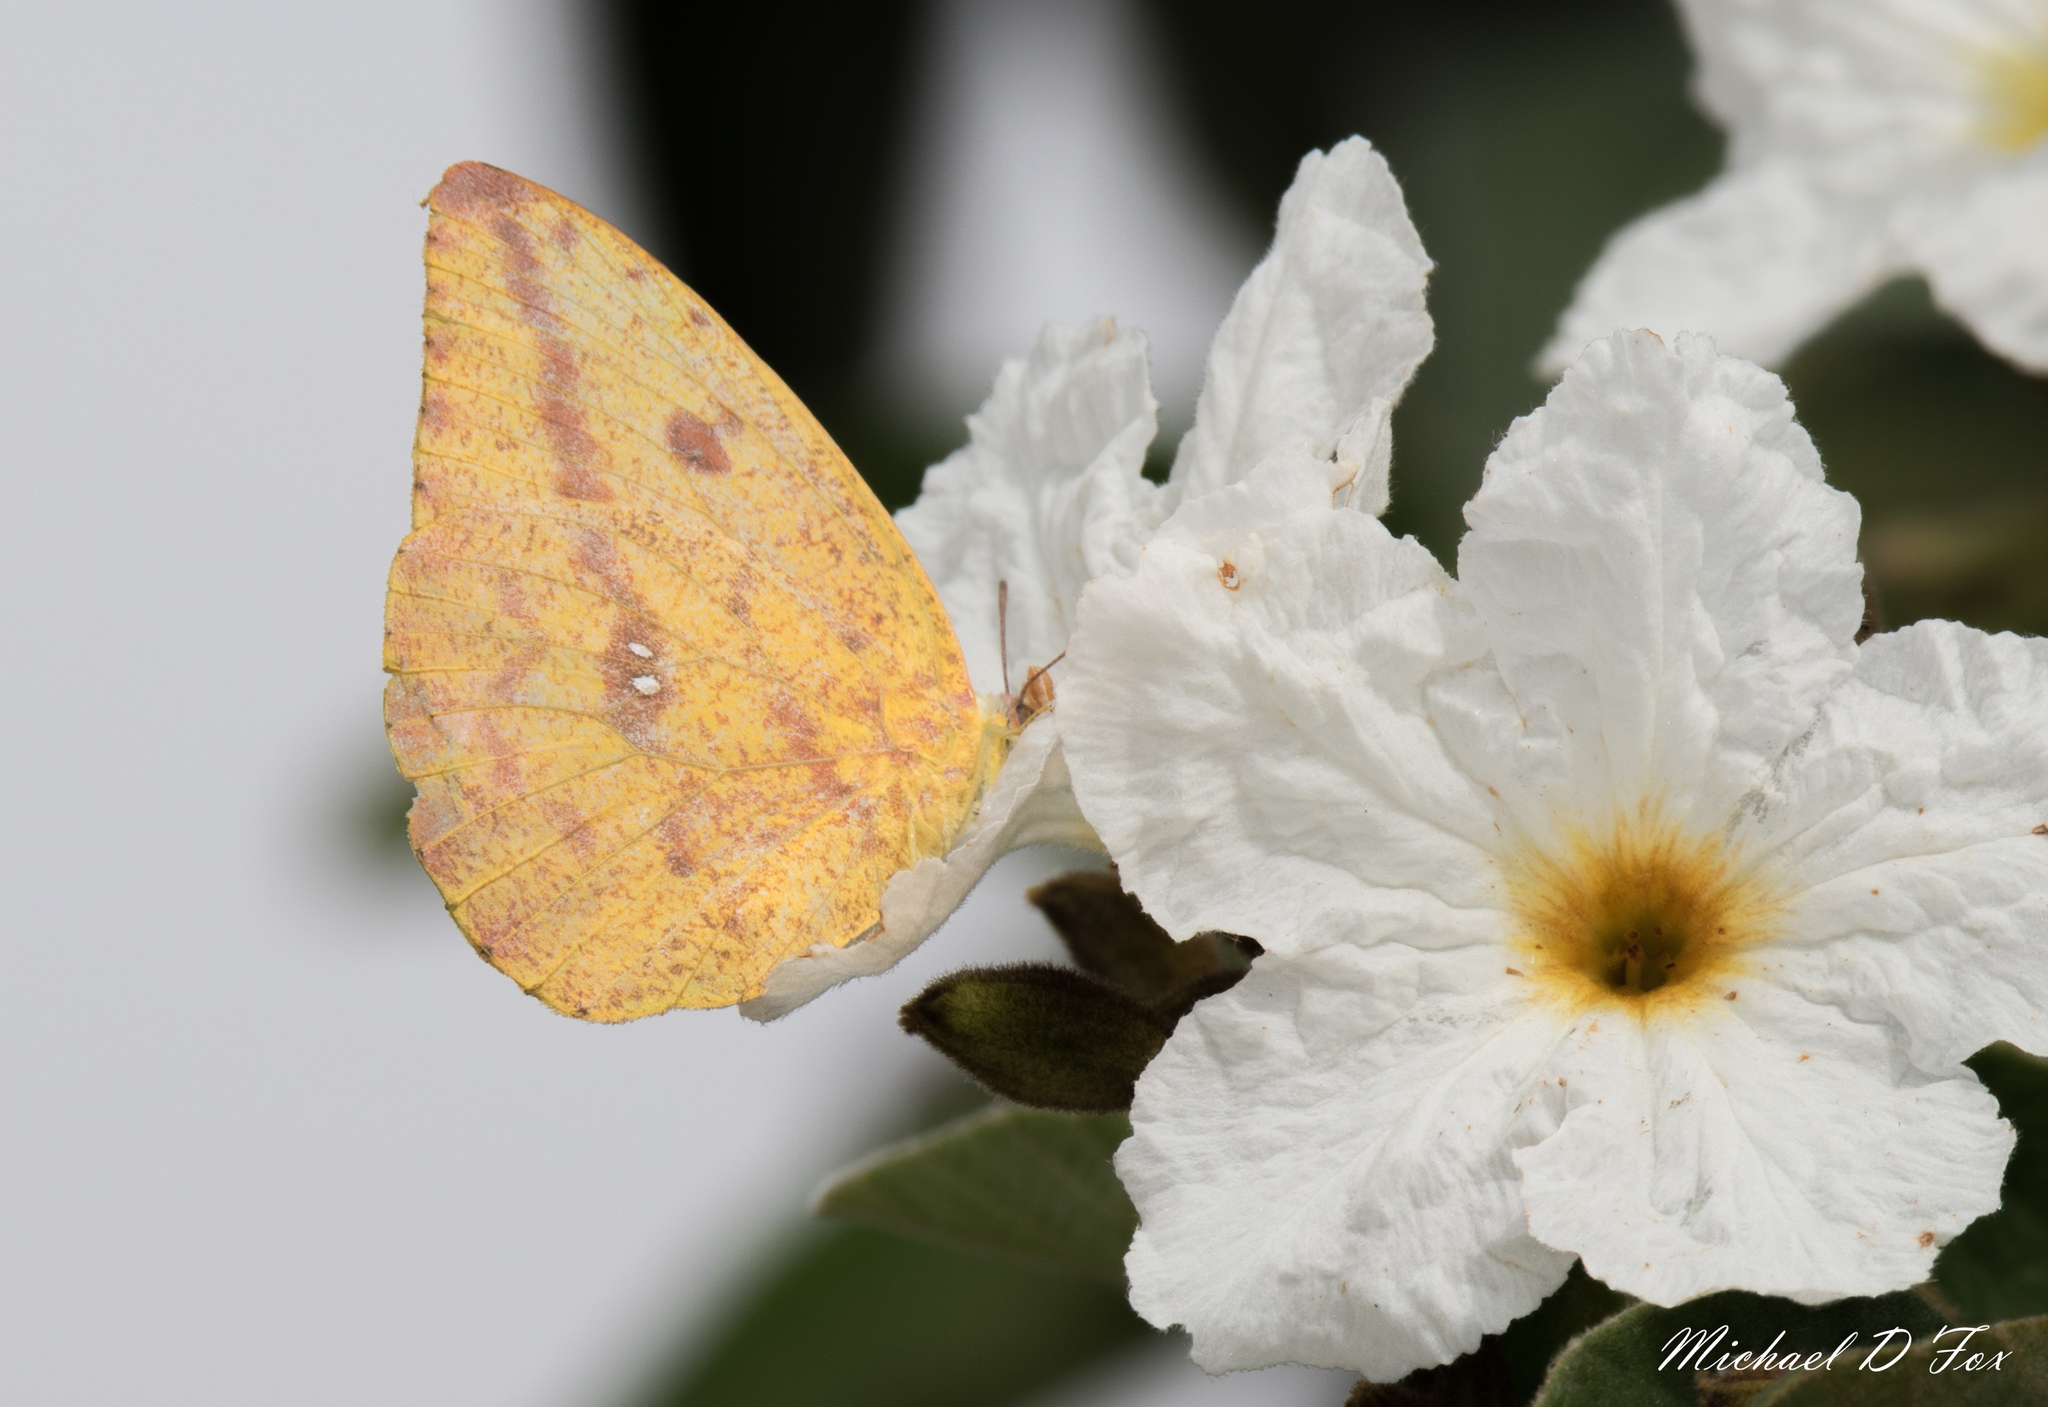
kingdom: Animalia
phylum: Arthropoda
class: Insecta
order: Lepidoptera
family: Pieridae
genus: Phoebis
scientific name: Phoebis agarithe
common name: Large orange sulphur
